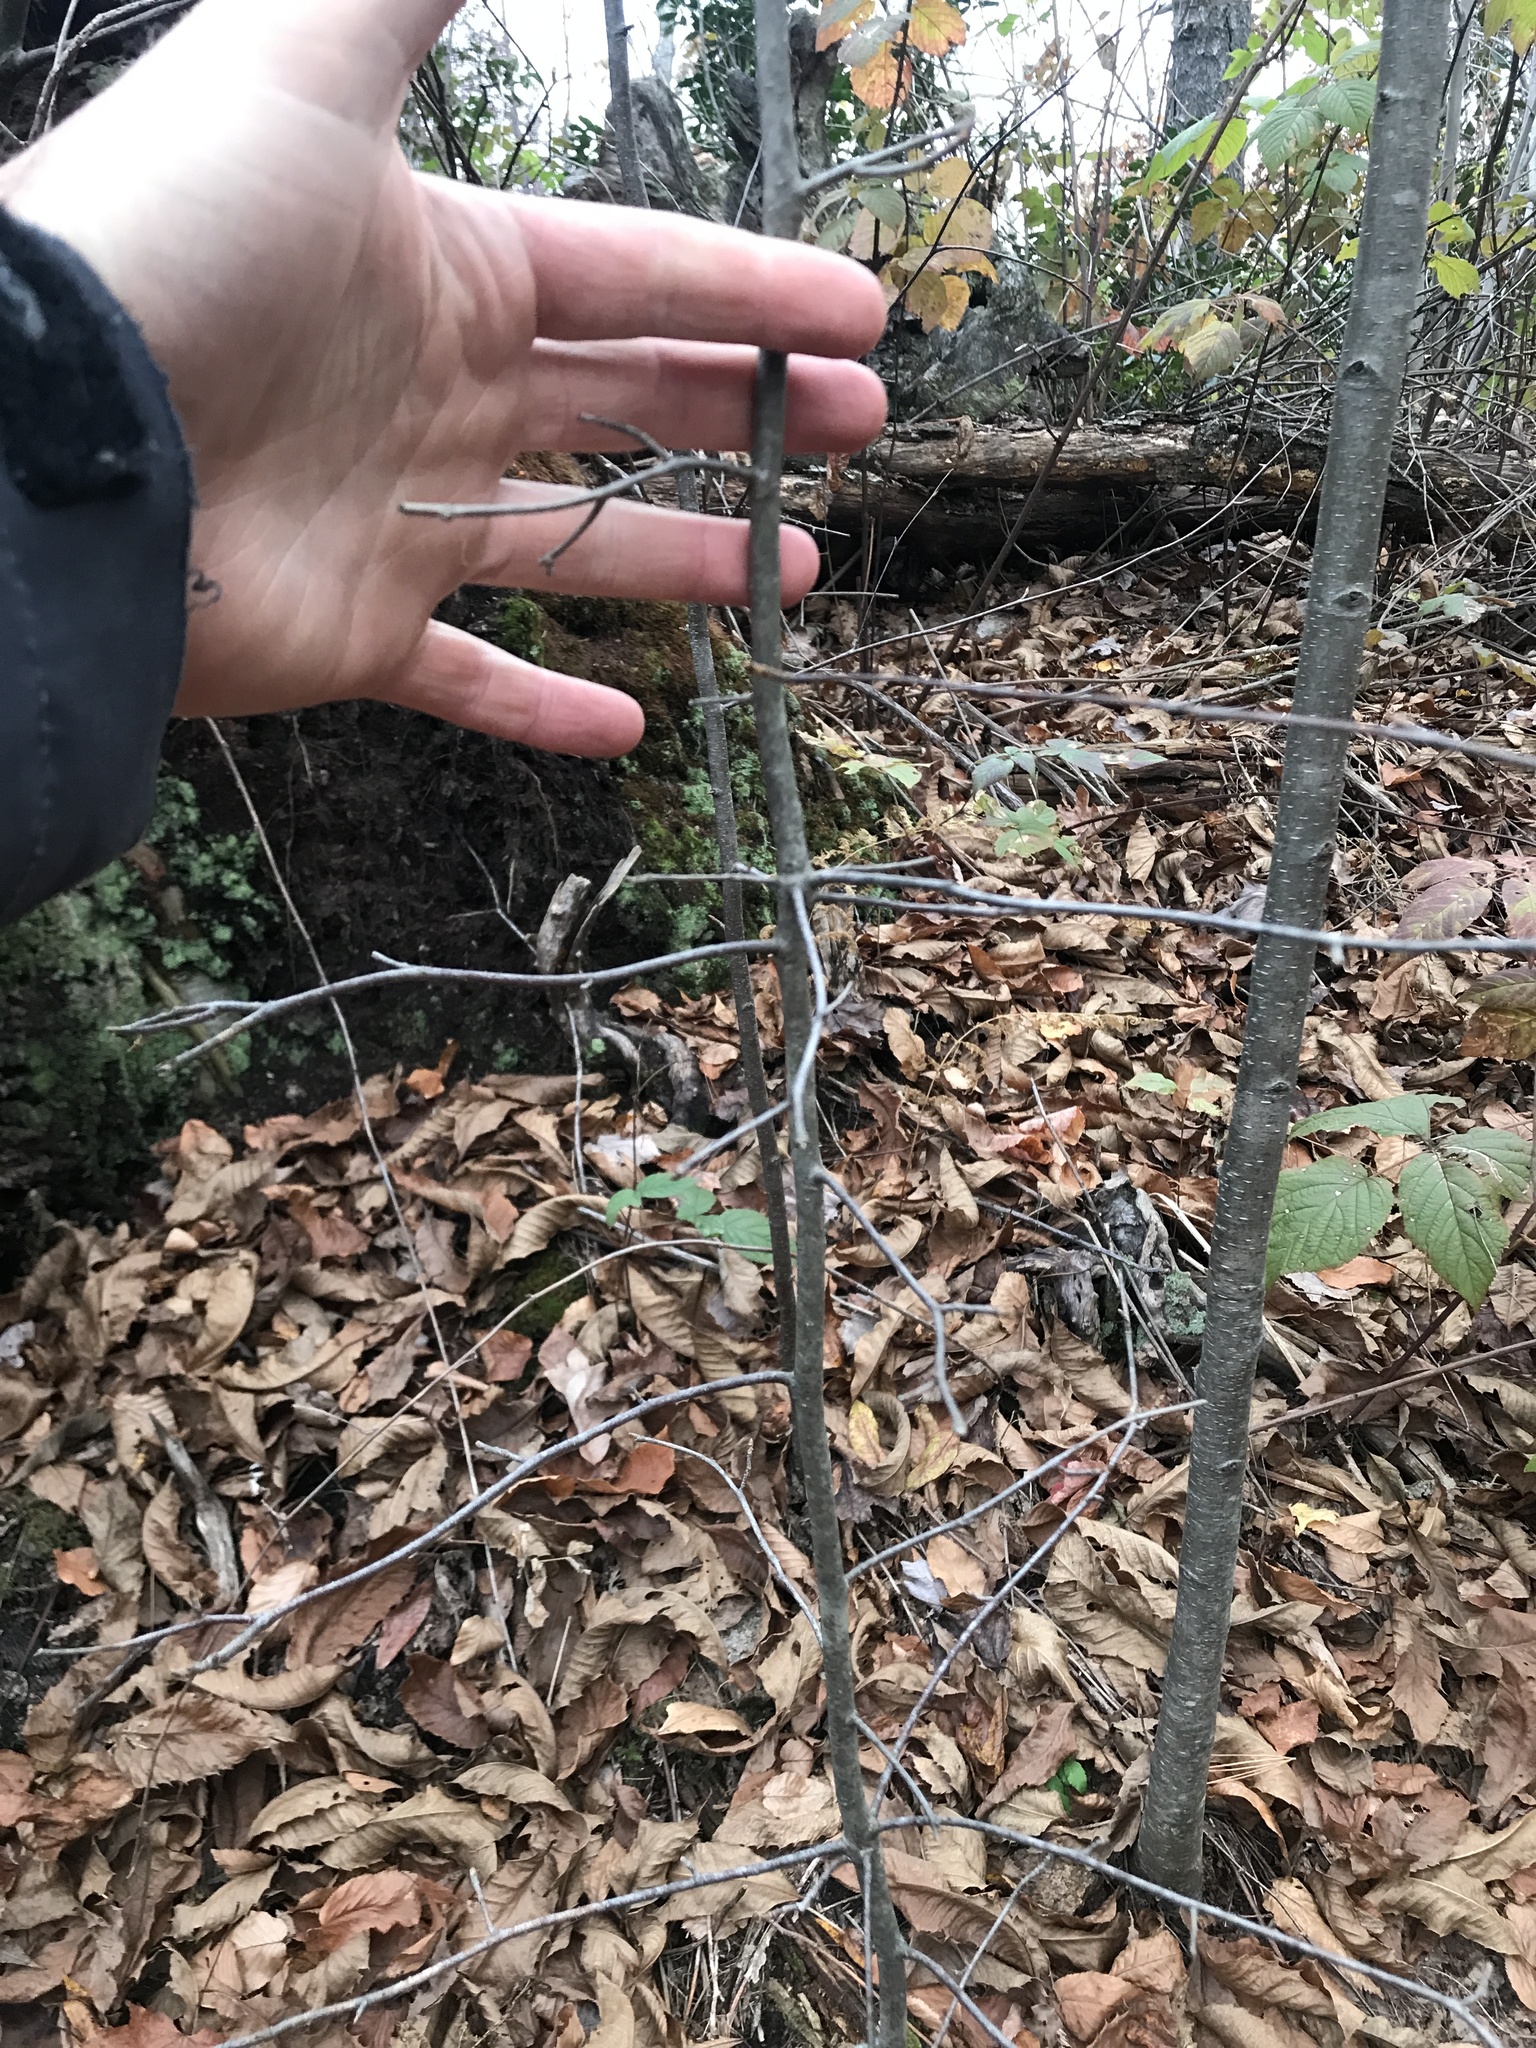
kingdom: Plantae
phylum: Tracheophyta
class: Magnoliopsida
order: Cornales
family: Nyssaceae
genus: Nyssa
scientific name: Nyssa sylvatica
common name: Black tupelo
